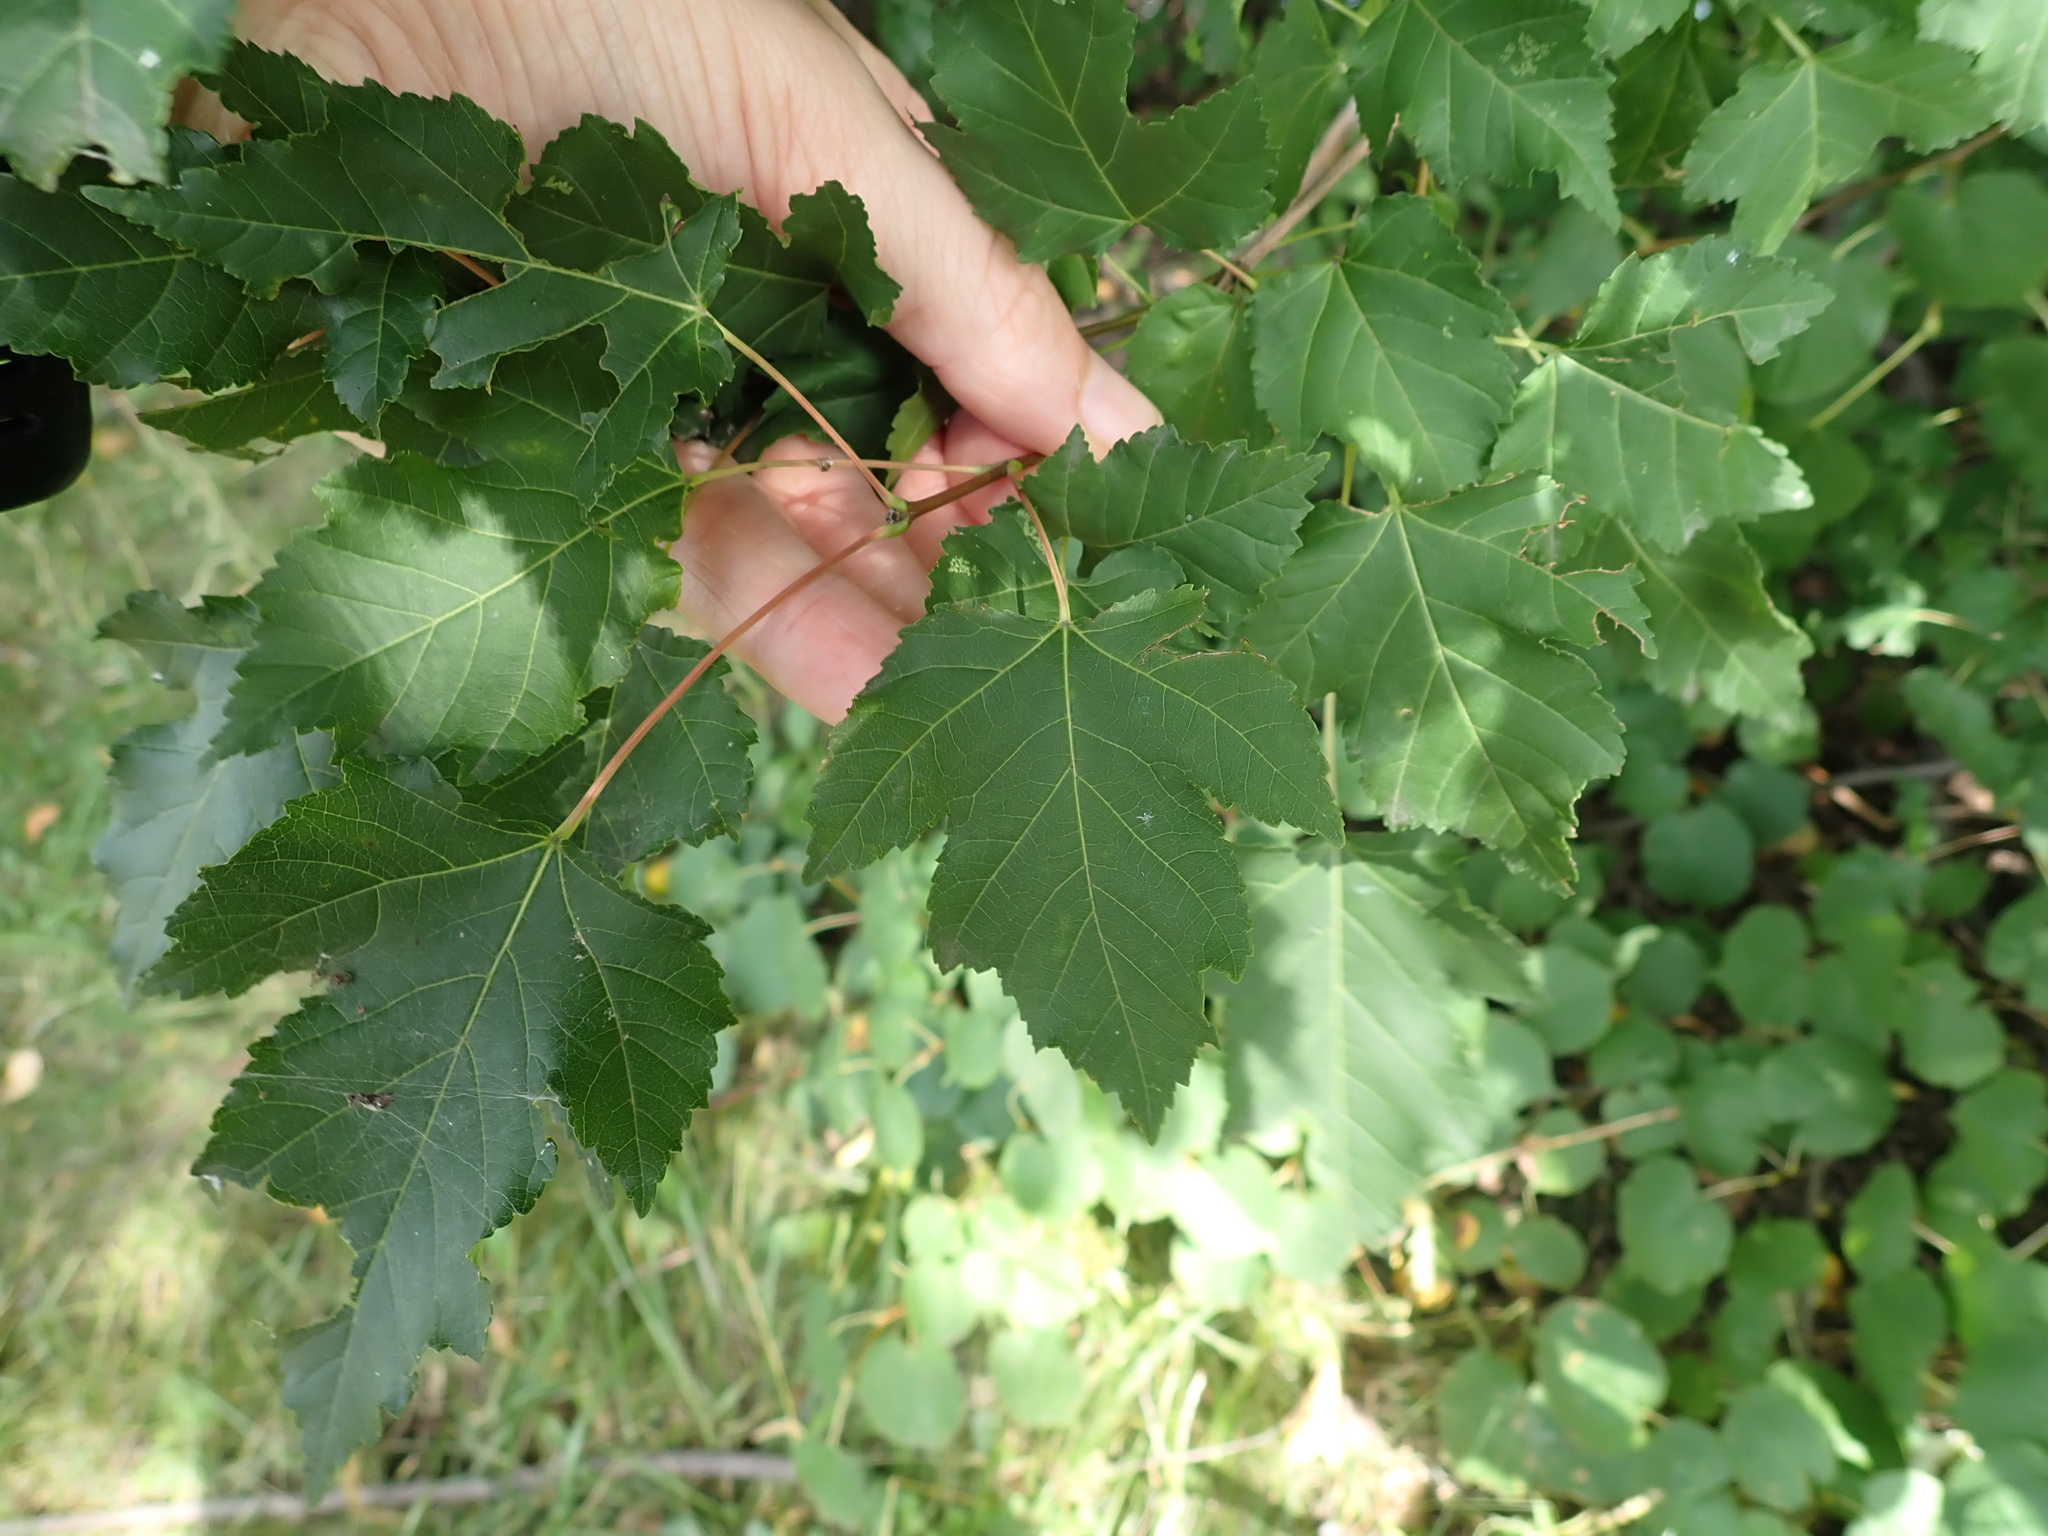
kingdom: Plantae
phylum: Tracheophyta
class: Magnoliopsida
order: Sapindales
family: Sapindaceae
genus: Acer
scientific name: Acer tataricum
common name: Tartar maple
